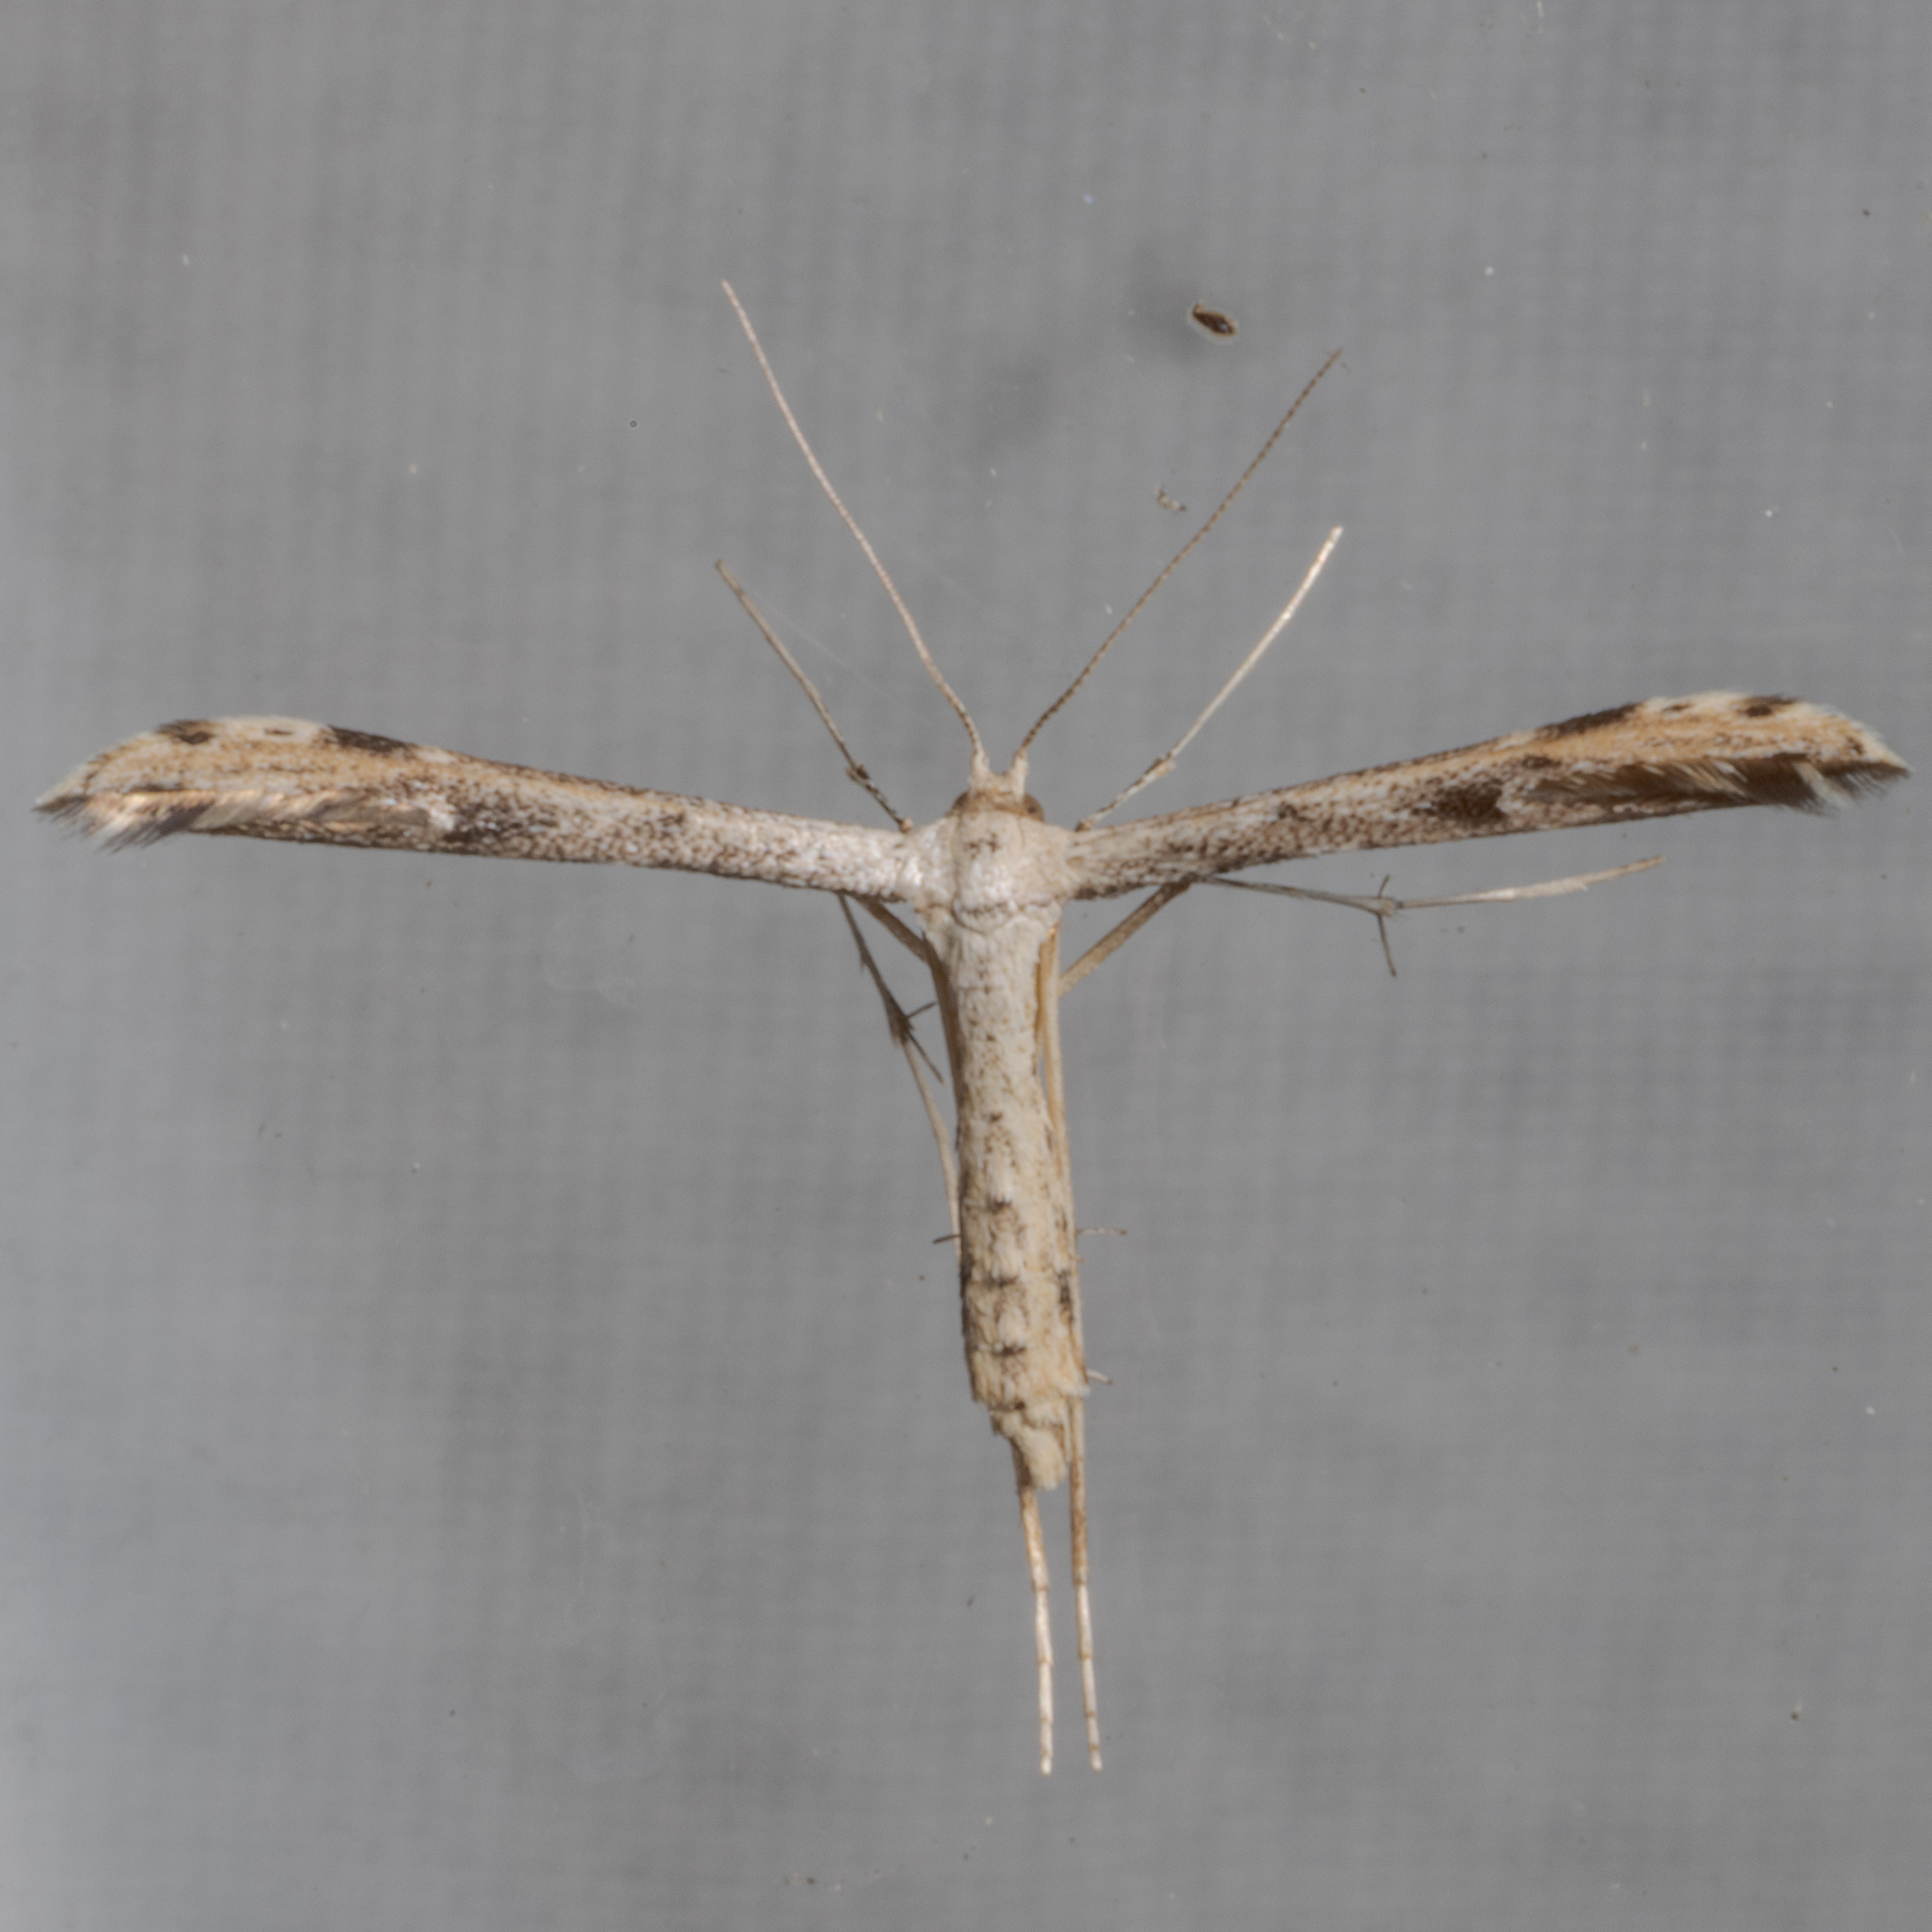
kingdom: Animalia
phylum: Arthropoda
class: Insecta
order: Lepidoptera
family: Pterophoridae
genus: Adaina
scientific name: Adaina ambrosiae
